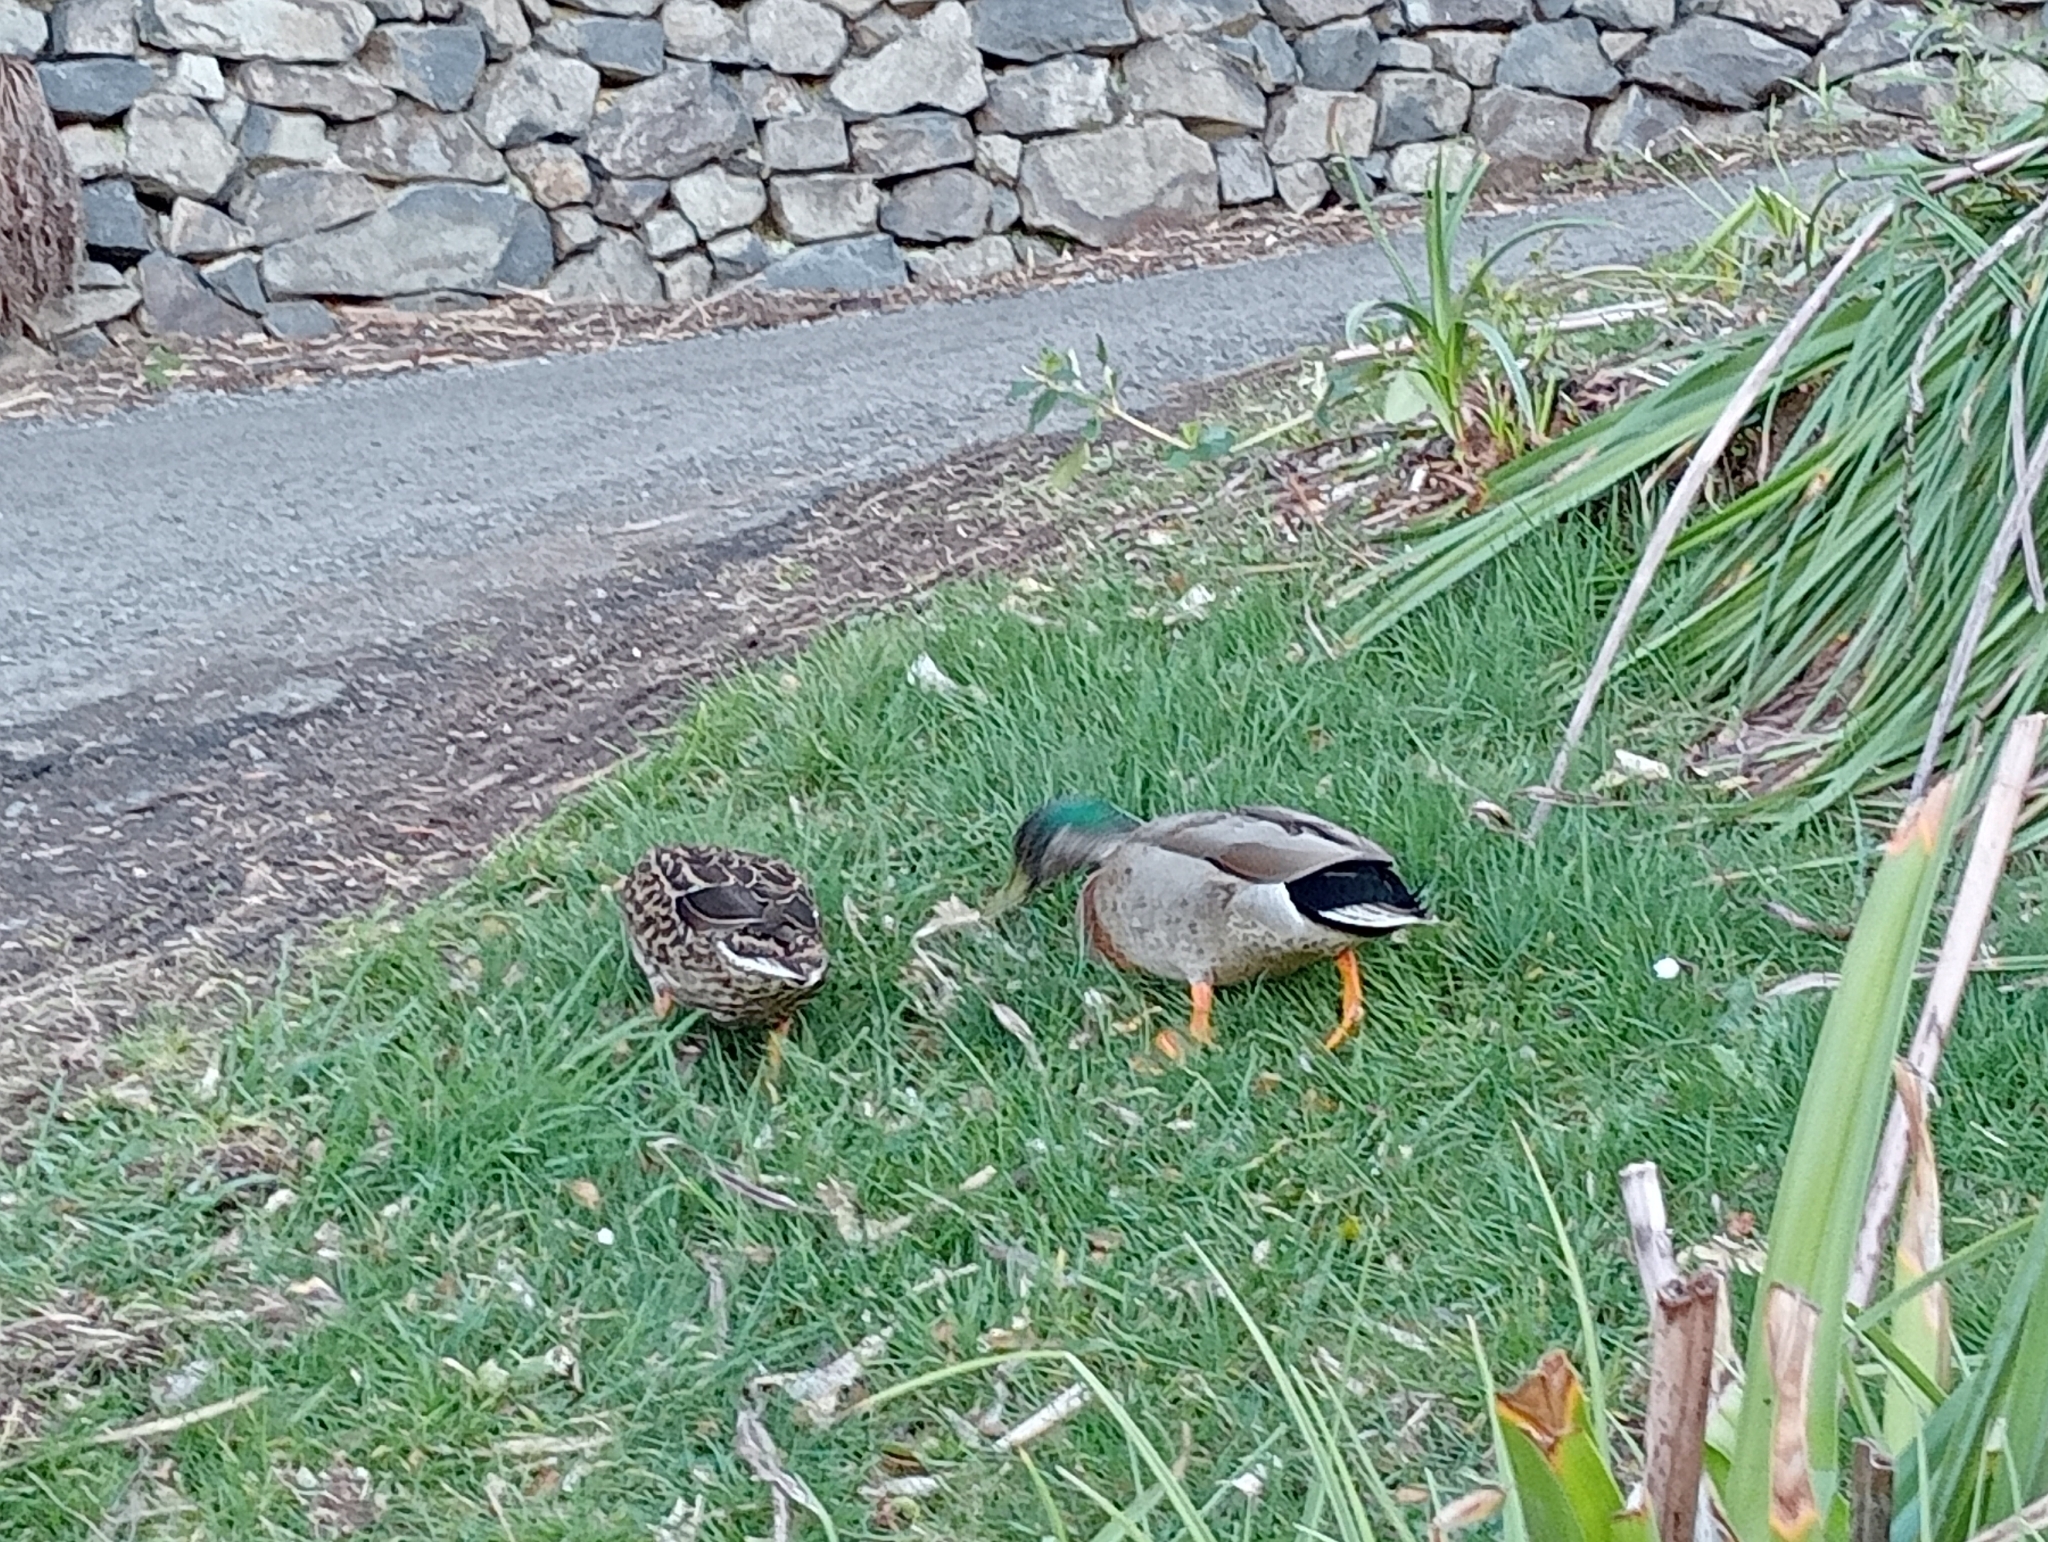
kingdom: Animalia
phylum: Chordata
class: Aves
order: Anseriformes
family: Anatidae
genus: Anas
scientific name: Anas platyrhynchos
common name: Mallard
